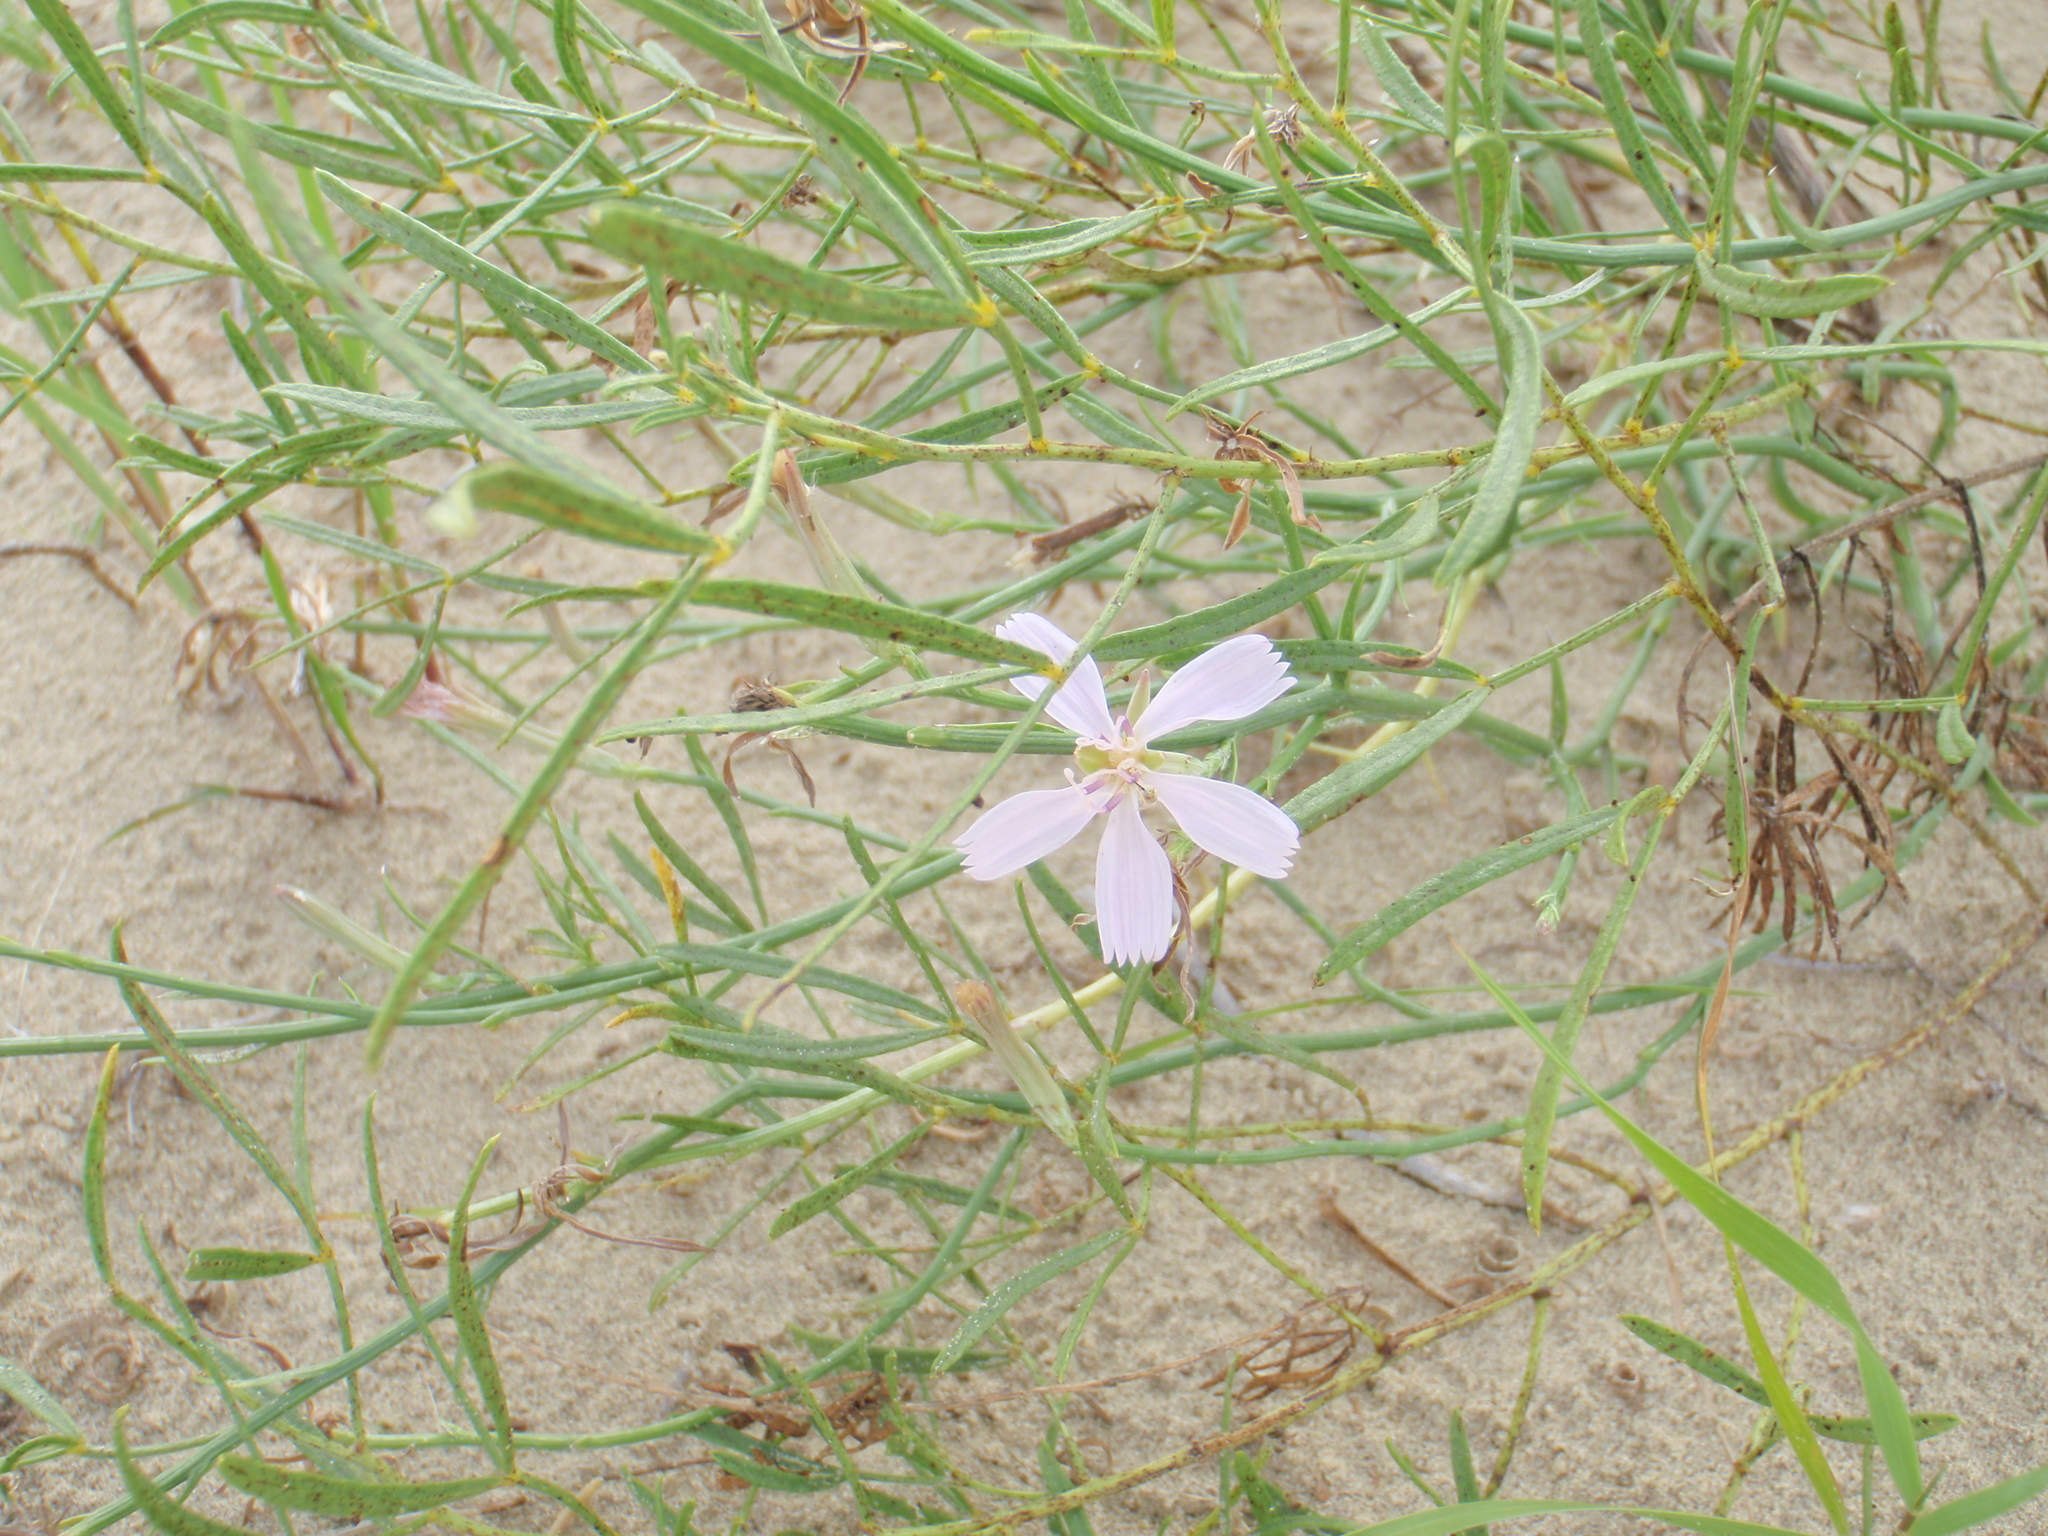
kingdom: Plantae
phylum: Tracheophyta
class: Magnoliopsida
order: Asterales
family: Asteraceae
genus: Lygodesmia
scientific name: Lygodesmia juncea
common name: Common skeletonweed
